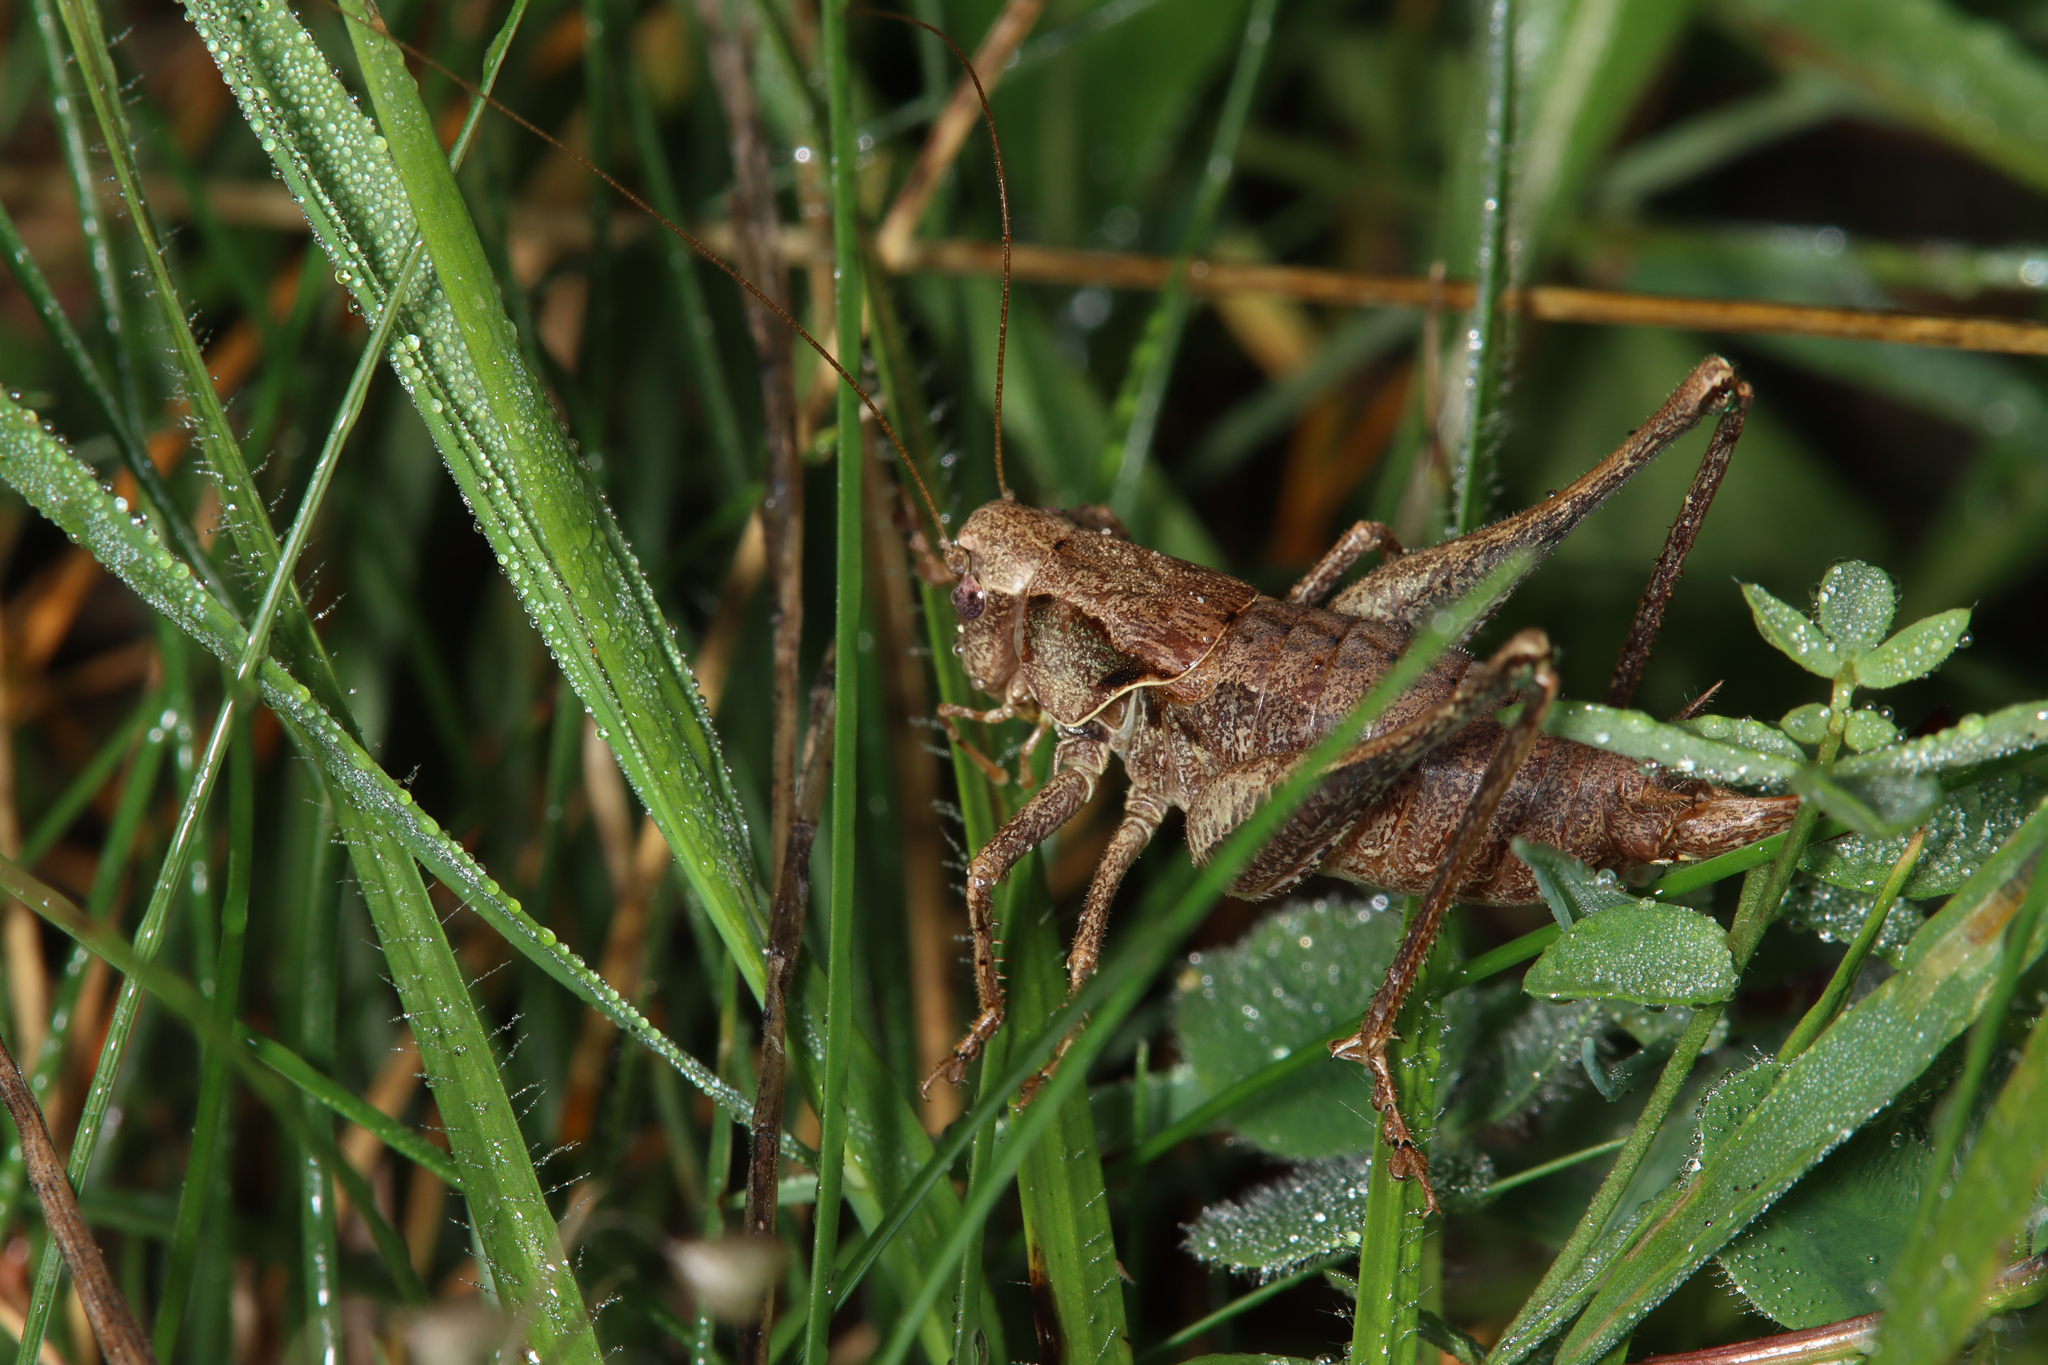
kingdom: Animalia
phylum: Arthropoda
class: Insecta
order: Orthoptera
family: Tettigoniidae
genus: Pholidoptera
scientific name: Pholidoptera griseoaptera
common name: Dark bush-cricket
